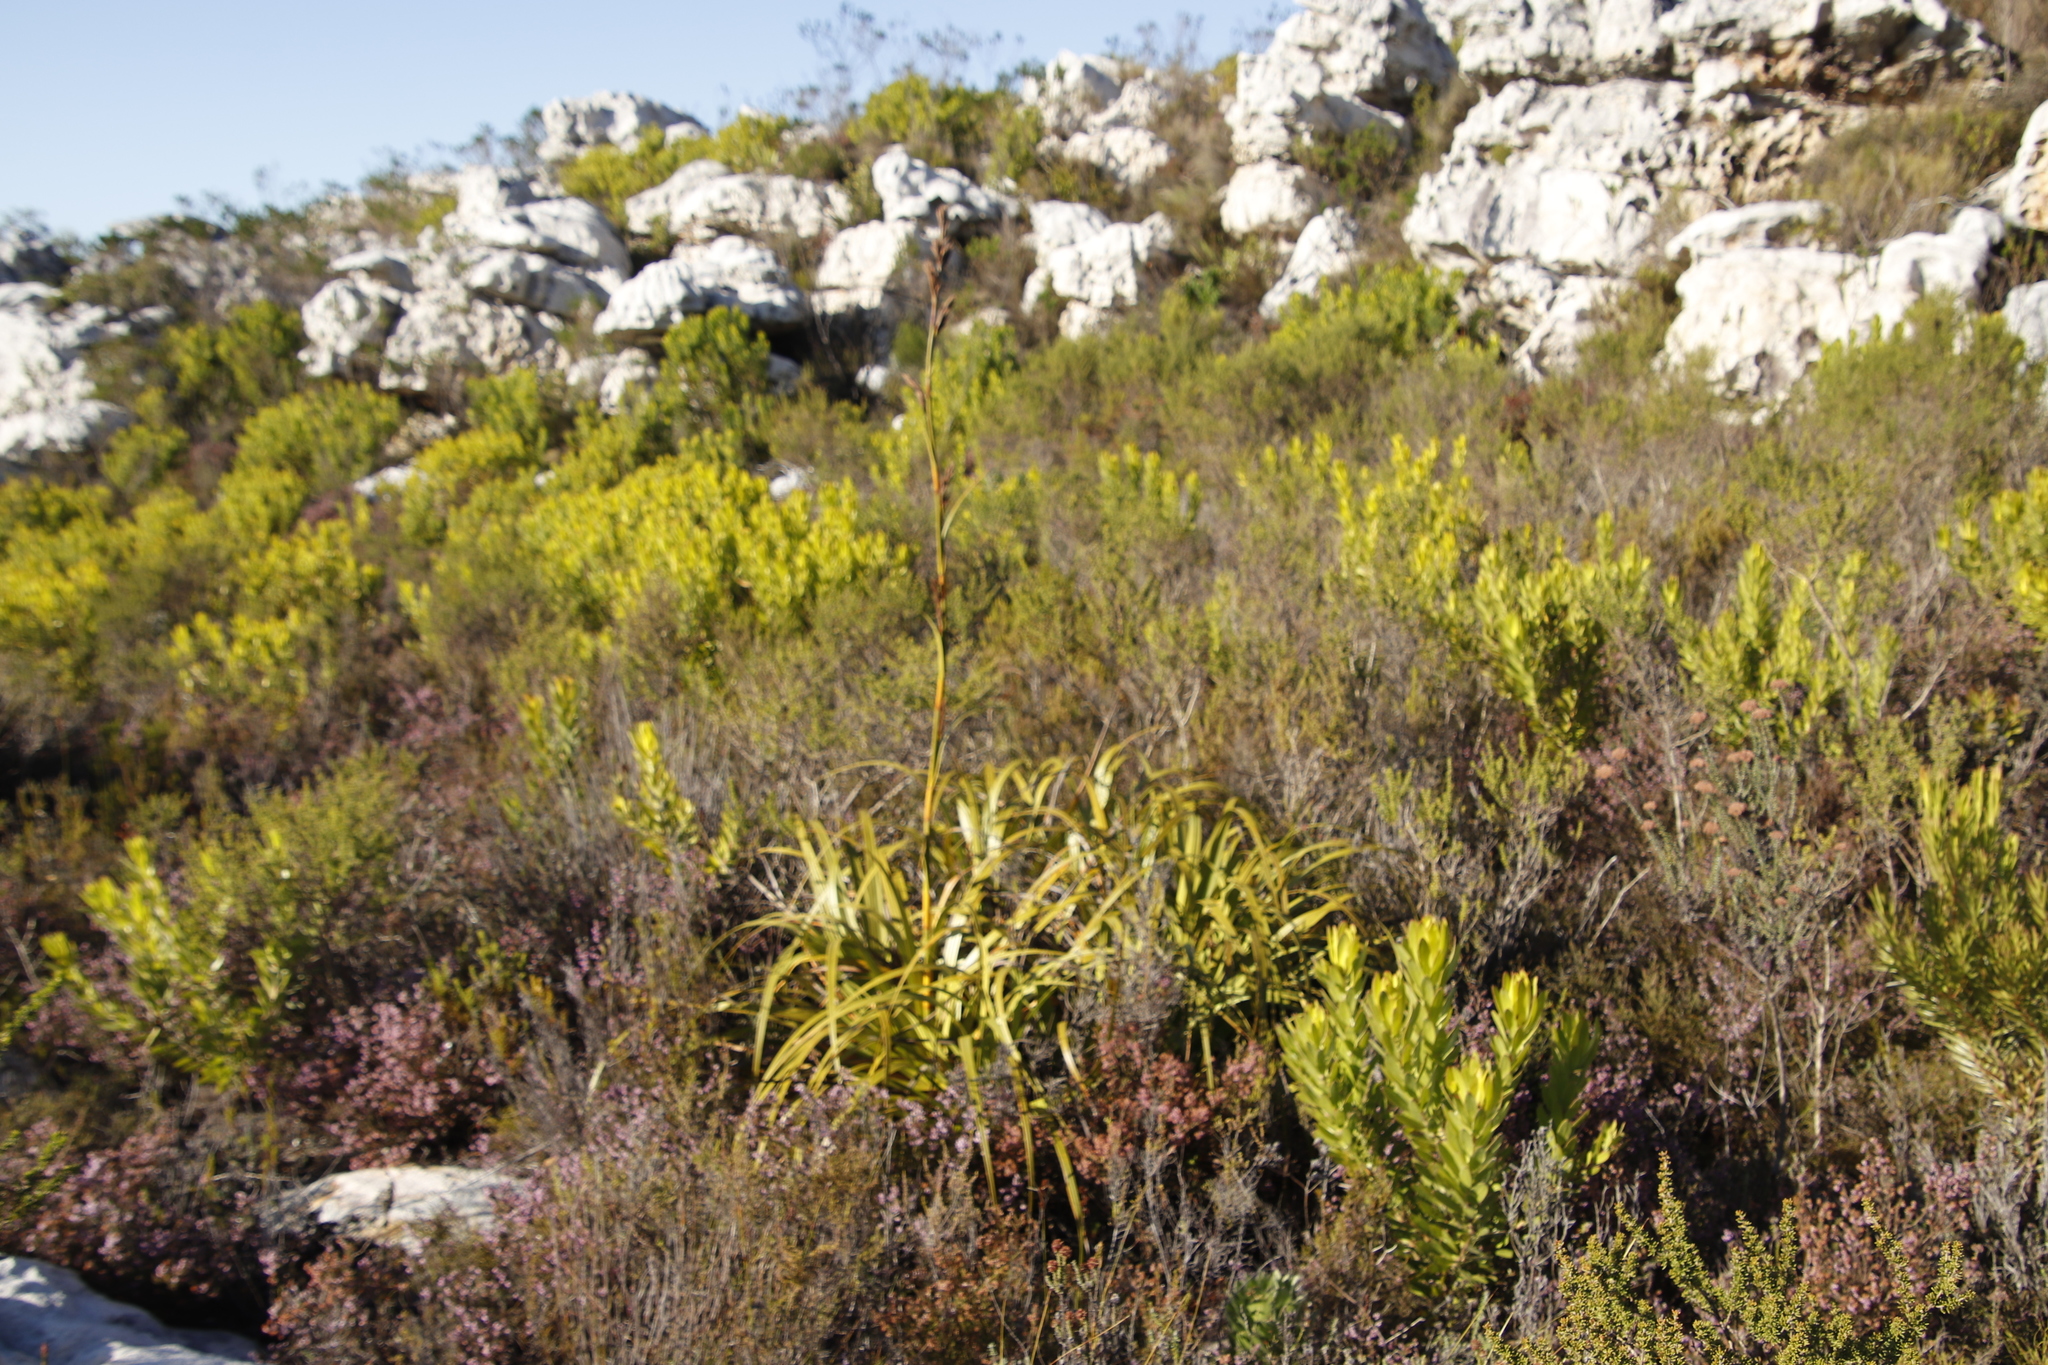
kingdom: Plantae
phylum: Tracheophyta
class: Liliopsida
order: Poales
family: Cyperaceae
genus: Tetraria
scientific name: Tetraria thermalis
